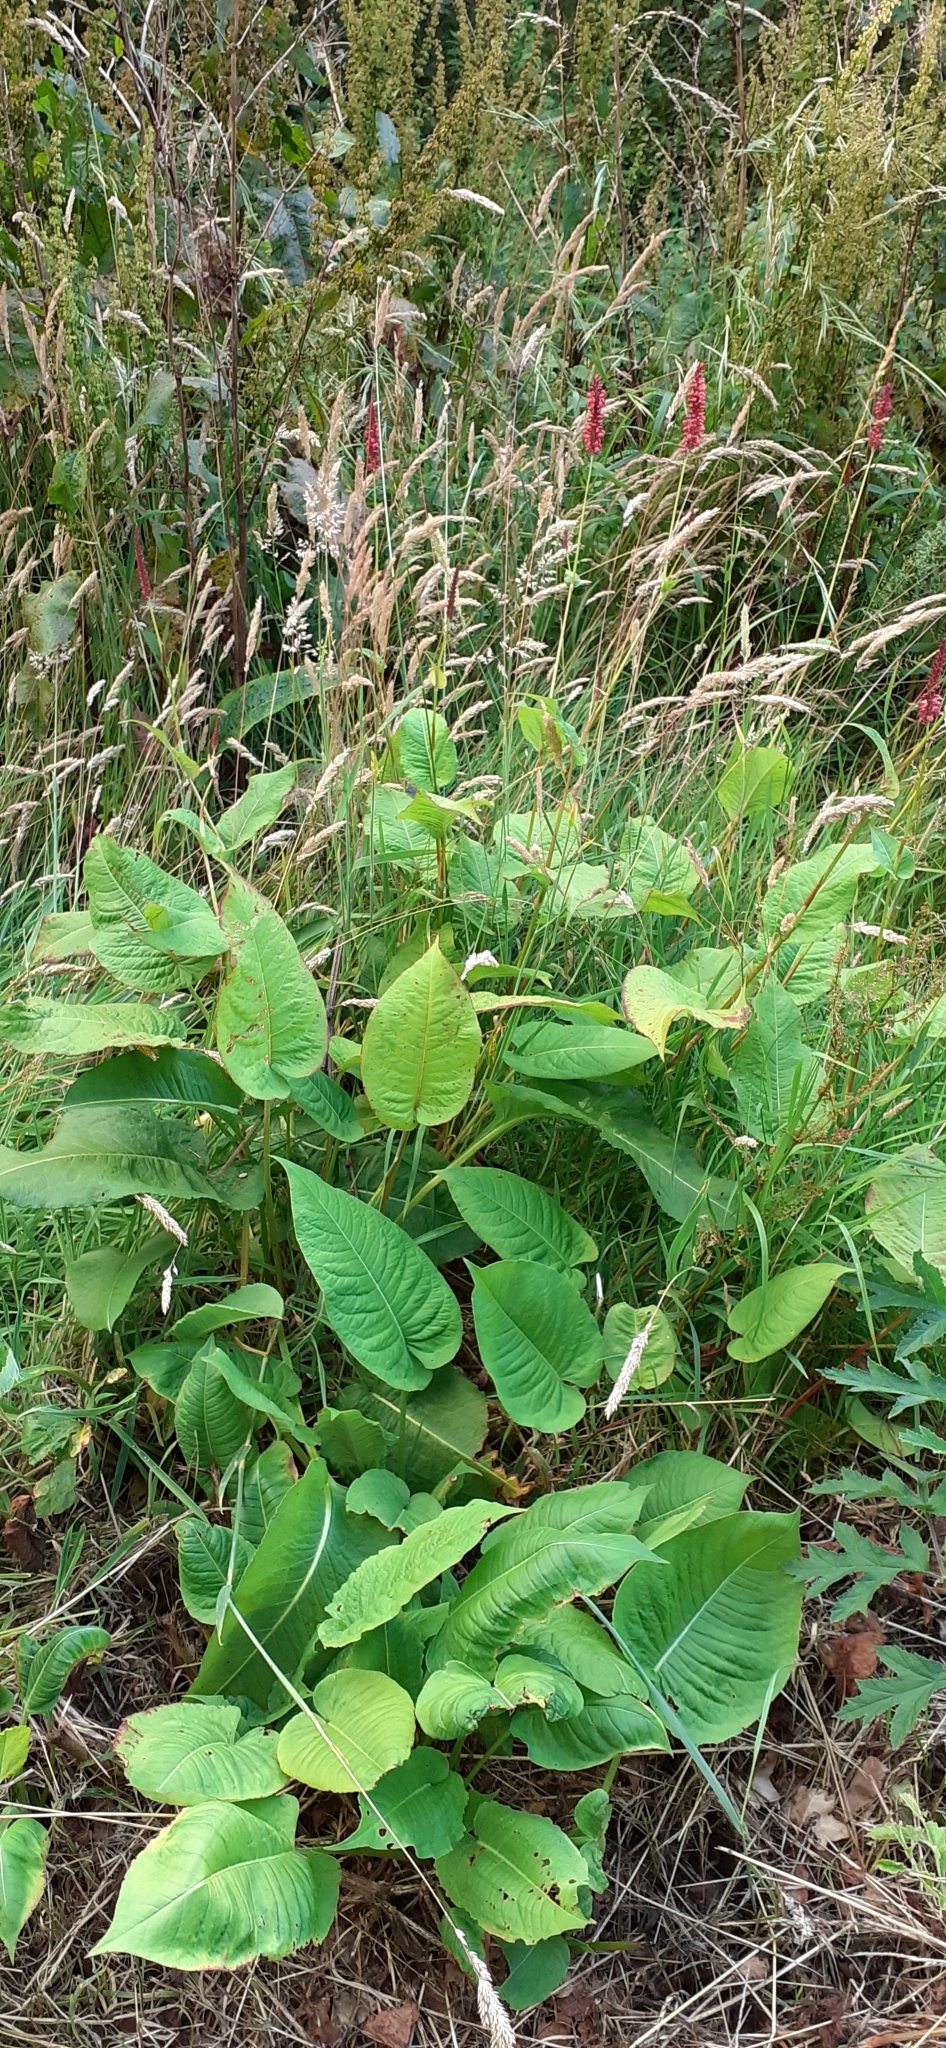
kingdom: Plantae
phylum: Tracheophyta
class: Magnoliopsida
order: Caryophyllales
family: Polygonaceae
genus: Bistorta
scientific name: Bistorta amplexicaulis
